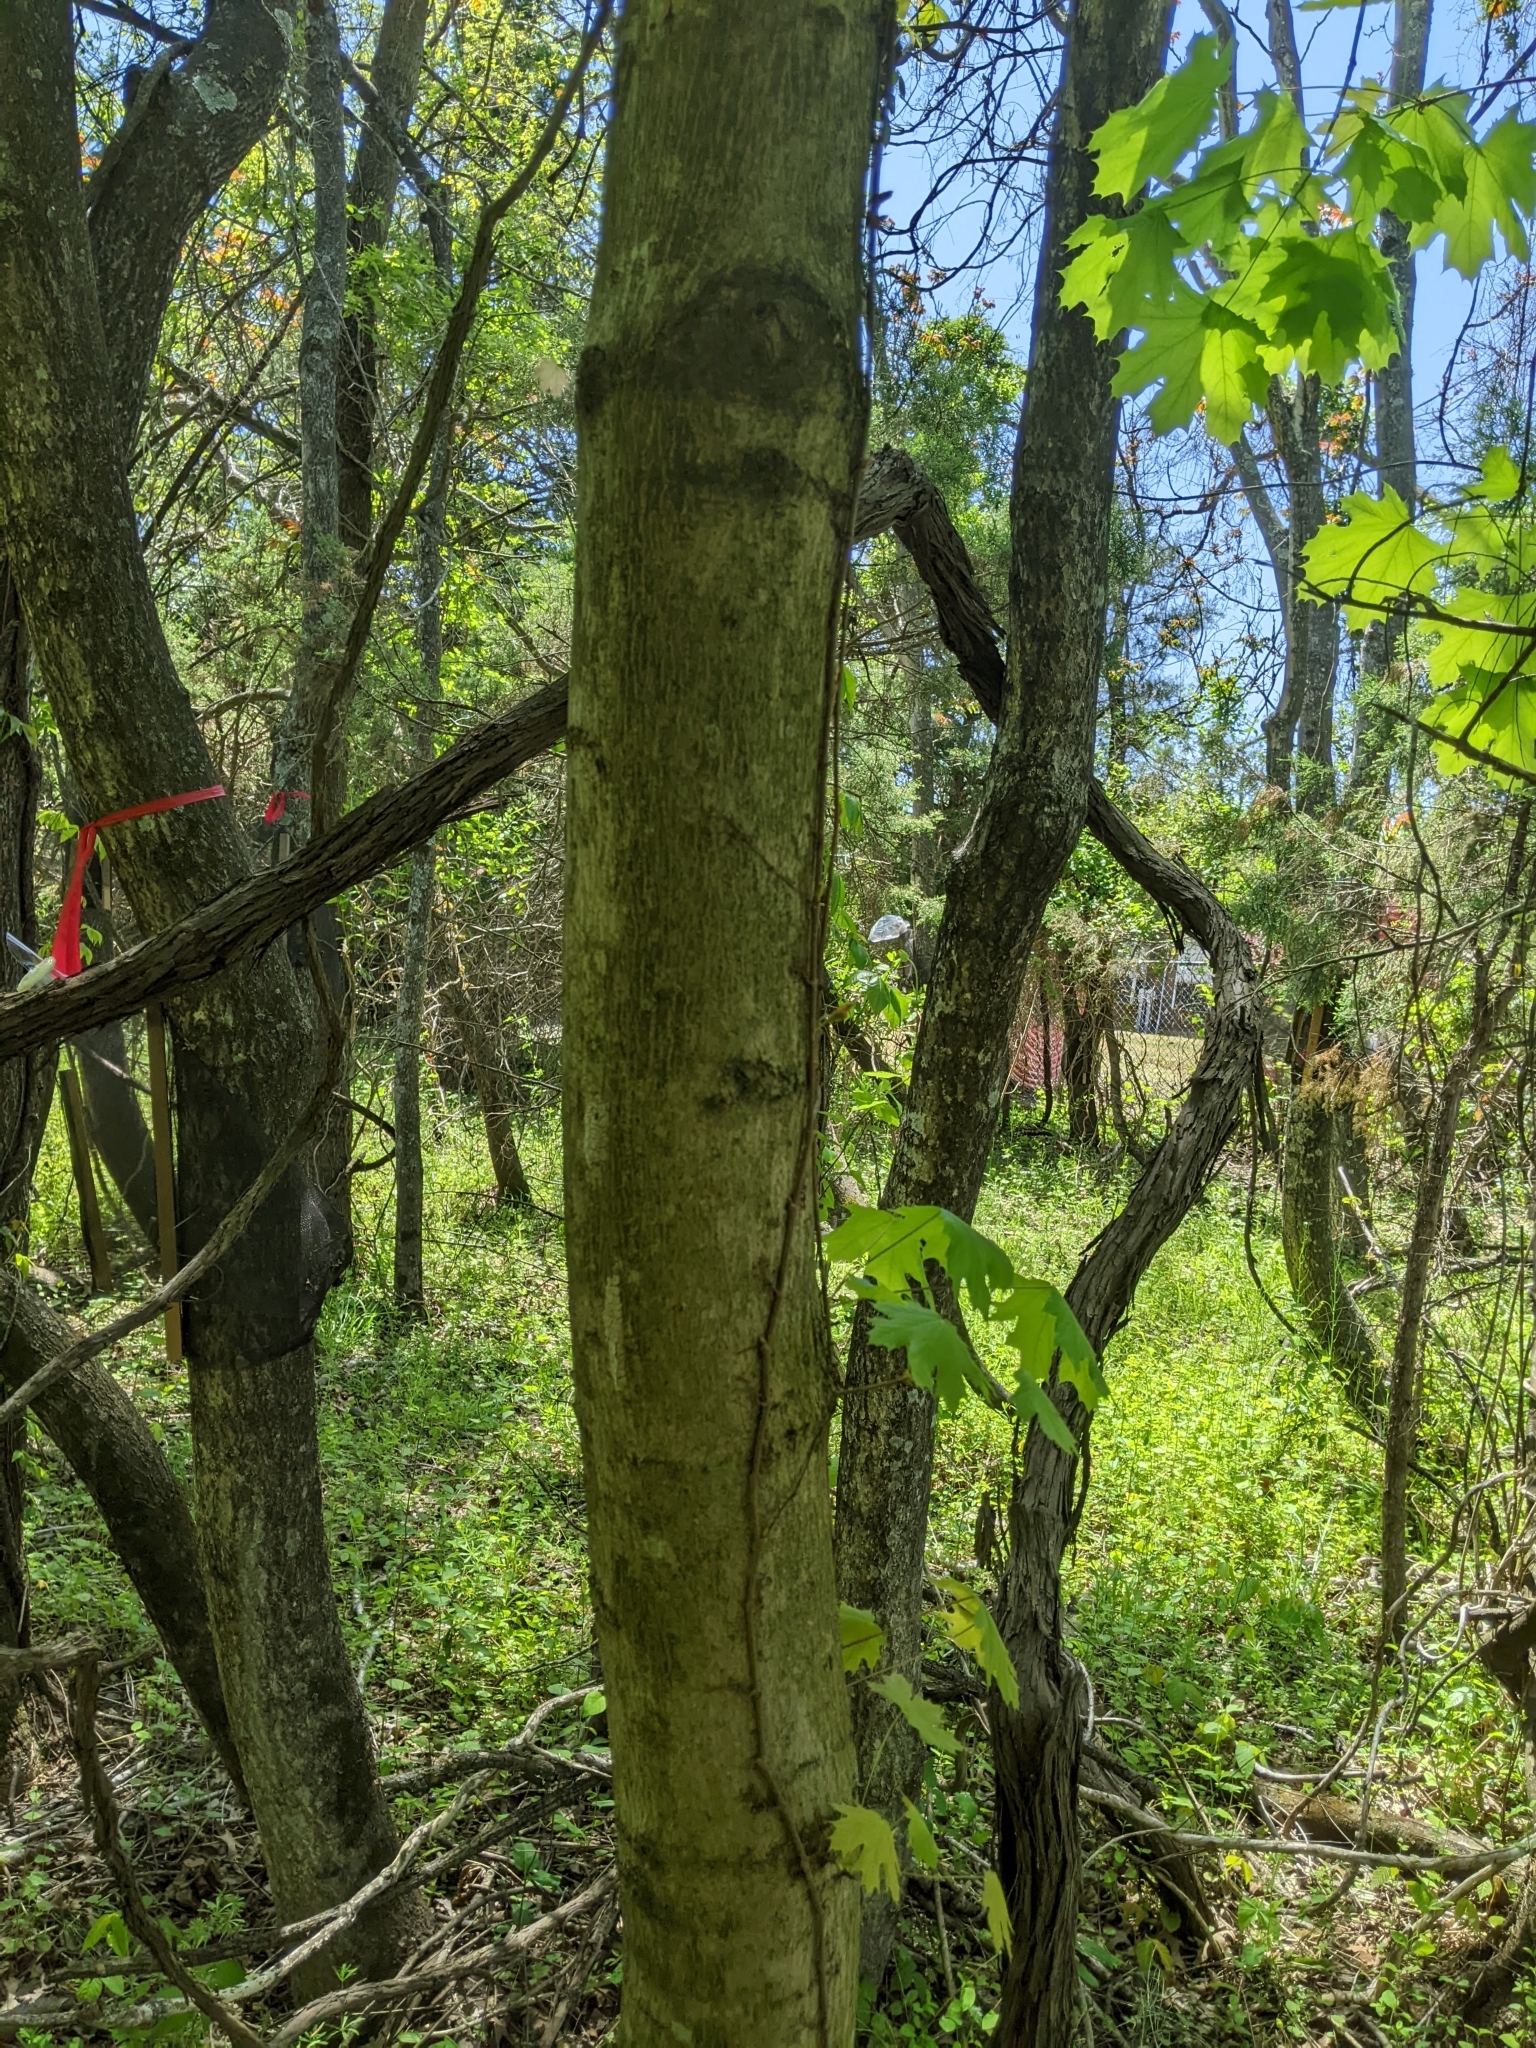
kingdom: Plantae
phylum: Tracheophyta
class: Magnoliopsida
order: Sapindales
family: Sapindaceae
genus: Acer
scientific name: Acer platanoides
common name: Norway maple
